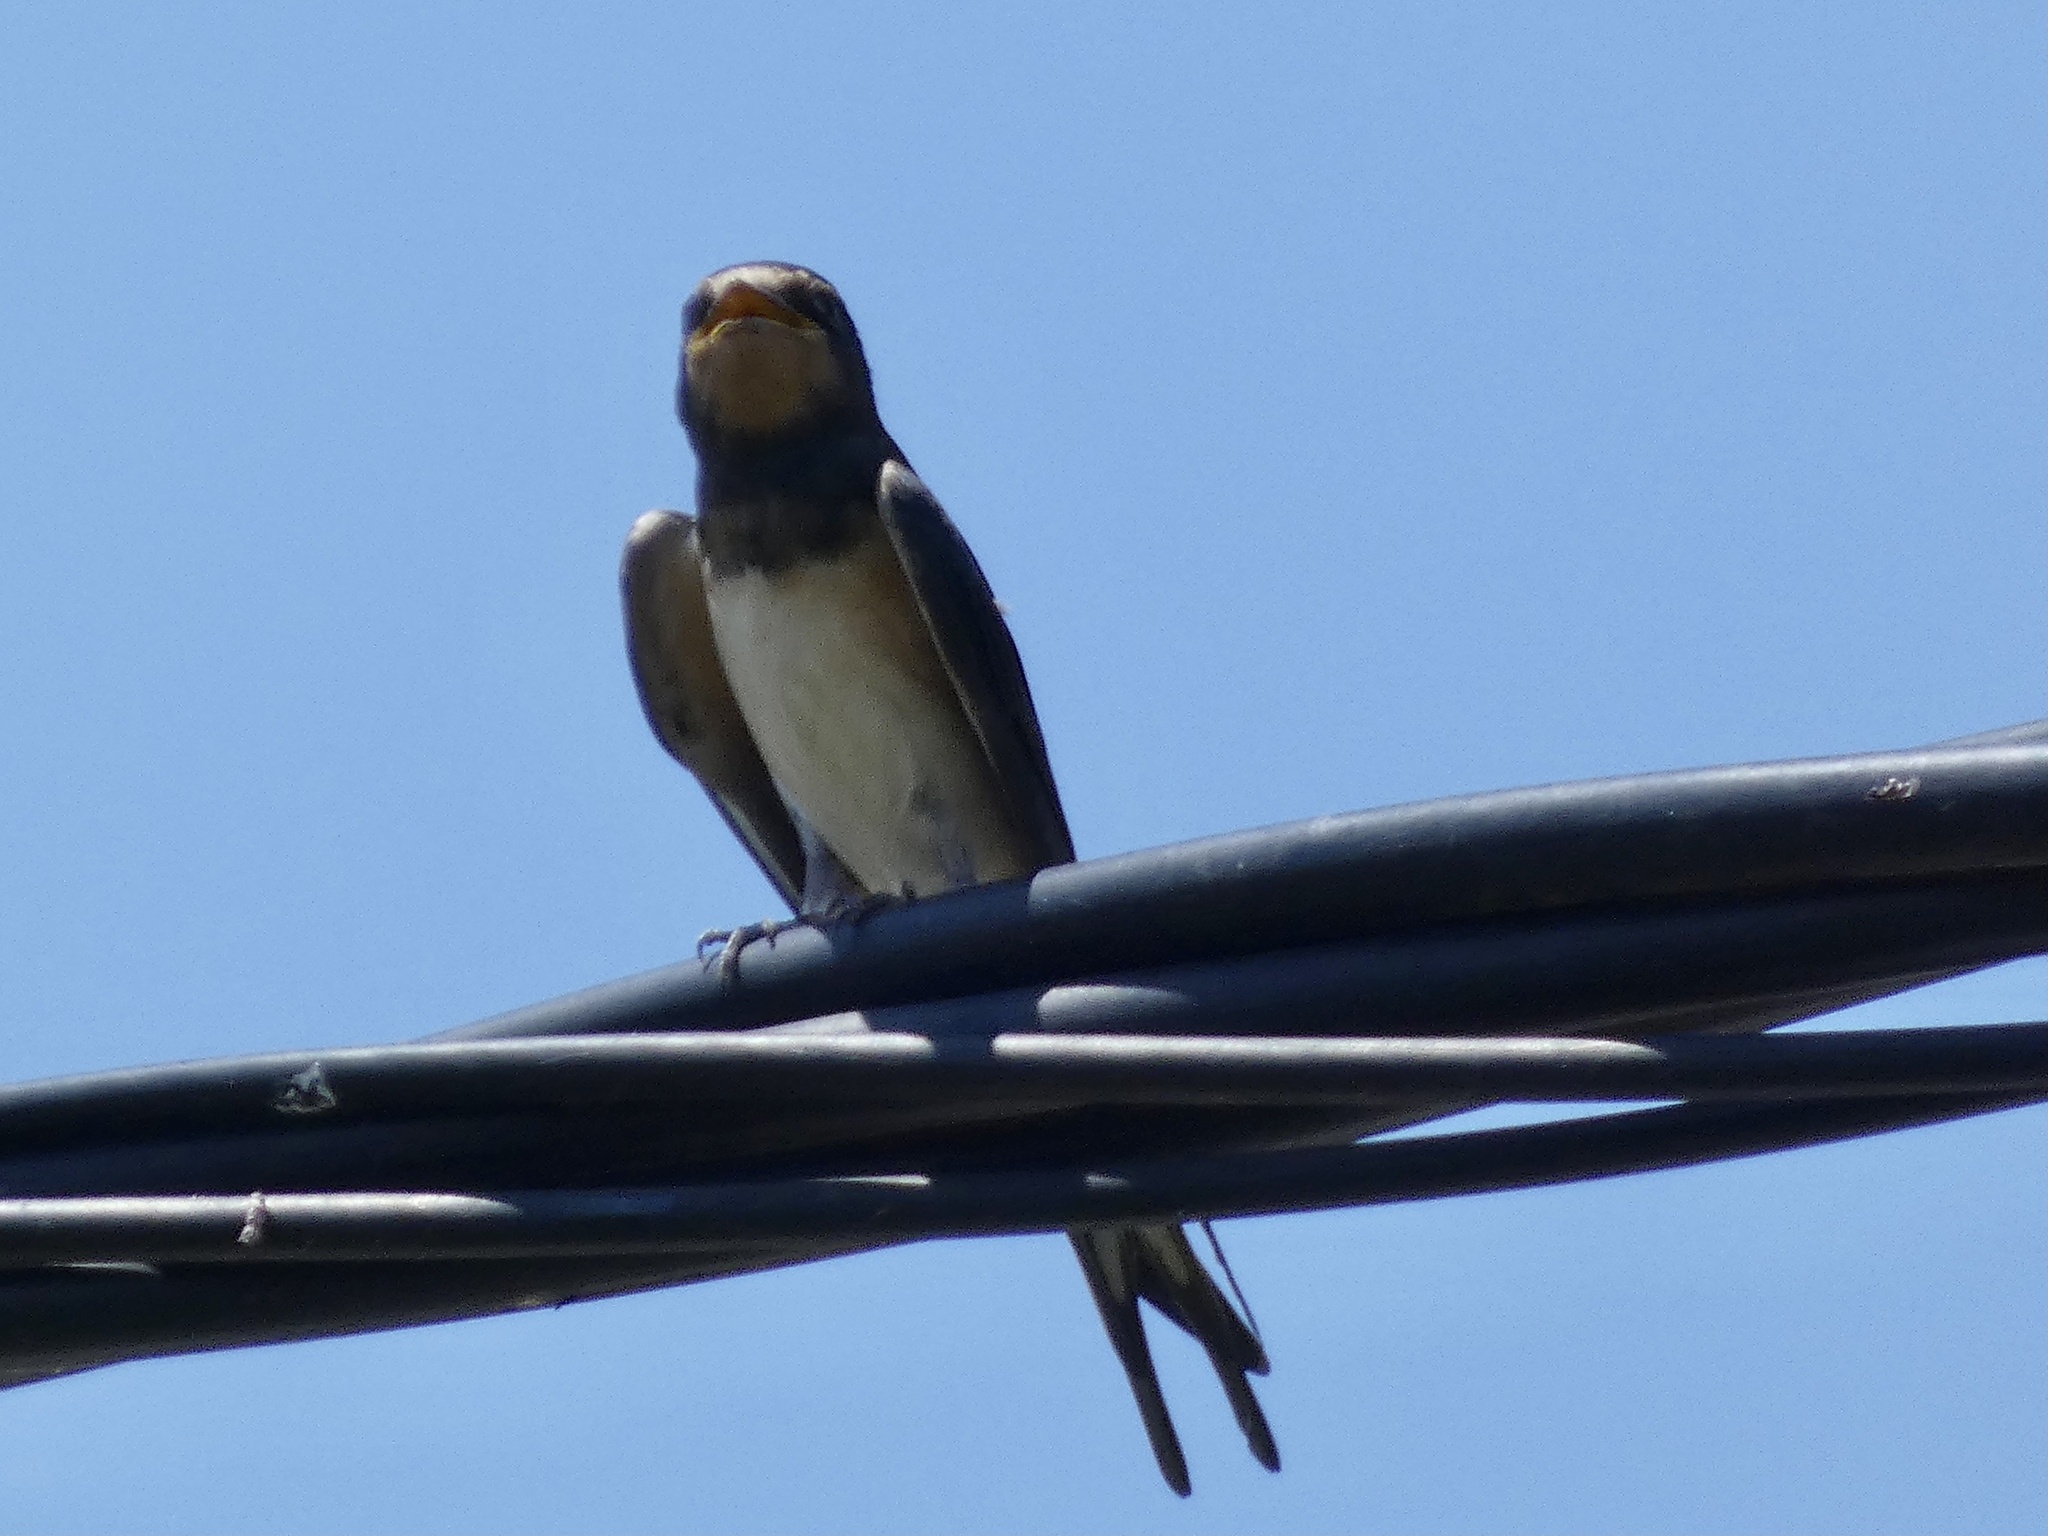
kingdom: Animalia
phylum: Chordata
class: Aves
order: Passeriformes
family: Hirundinidae
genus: Hirundo
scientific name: Hirundo rustica
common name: Barn swallow
